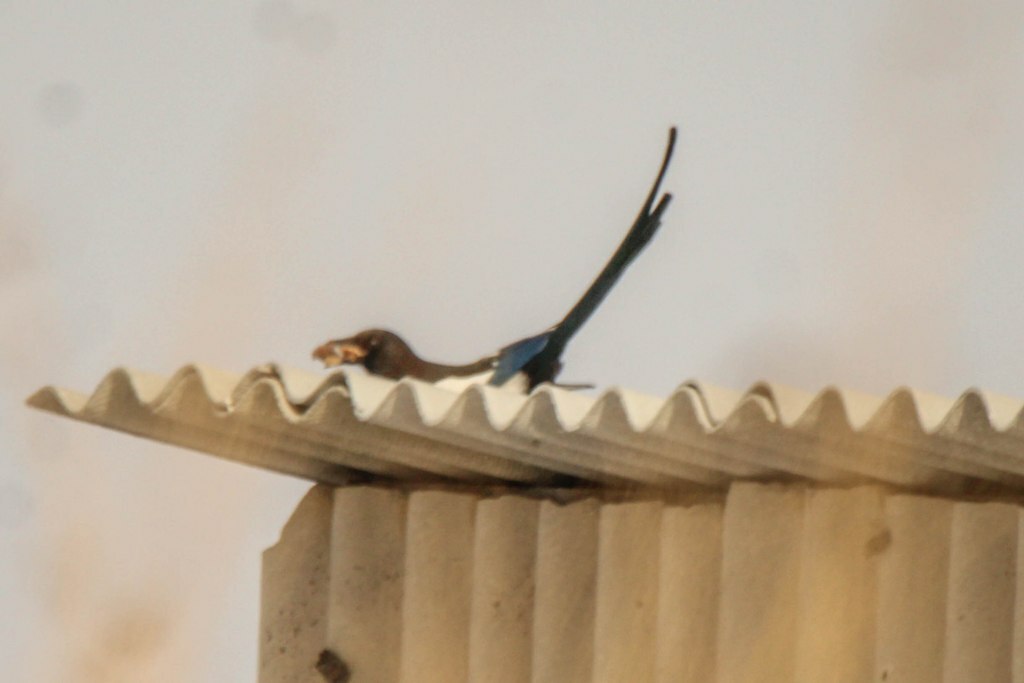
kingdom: Animalia
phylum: Chordata
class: Aves
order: Passeriformes
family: Corvidae
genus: Pica
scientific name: Pica pica
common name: Eurasian magpie
